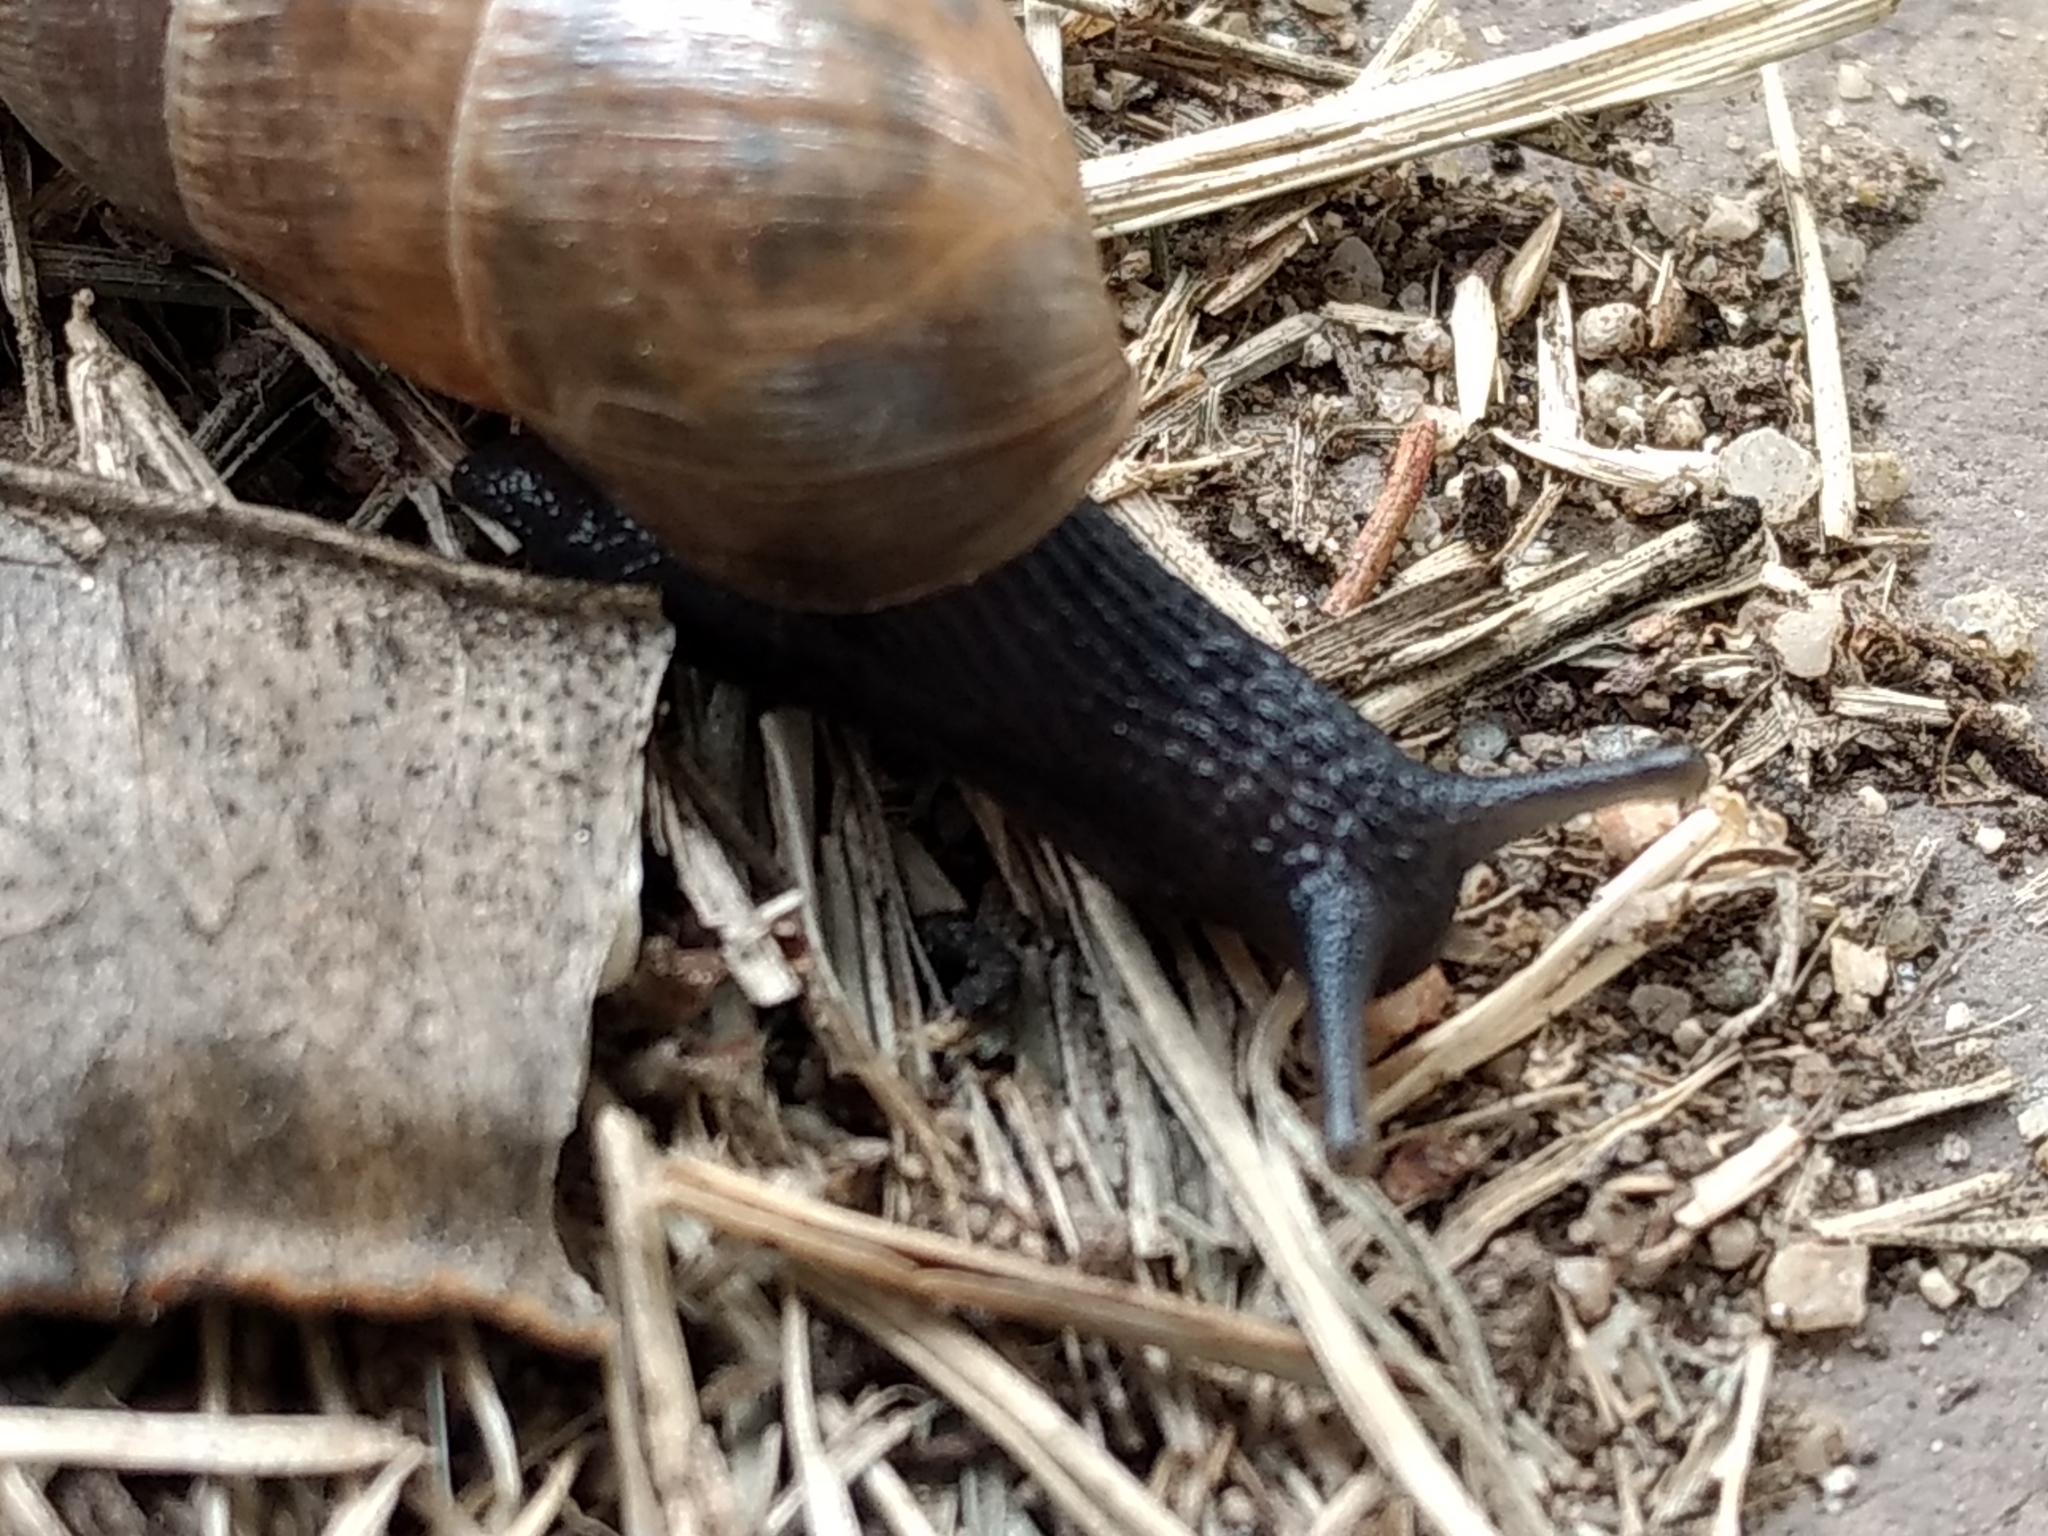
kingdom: Animalia
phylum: Mollusca
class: Gastropoda
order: Stylommatophora
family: Achatinidae
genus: Rumina
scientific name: Rumina decollata
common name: Decollate snail
